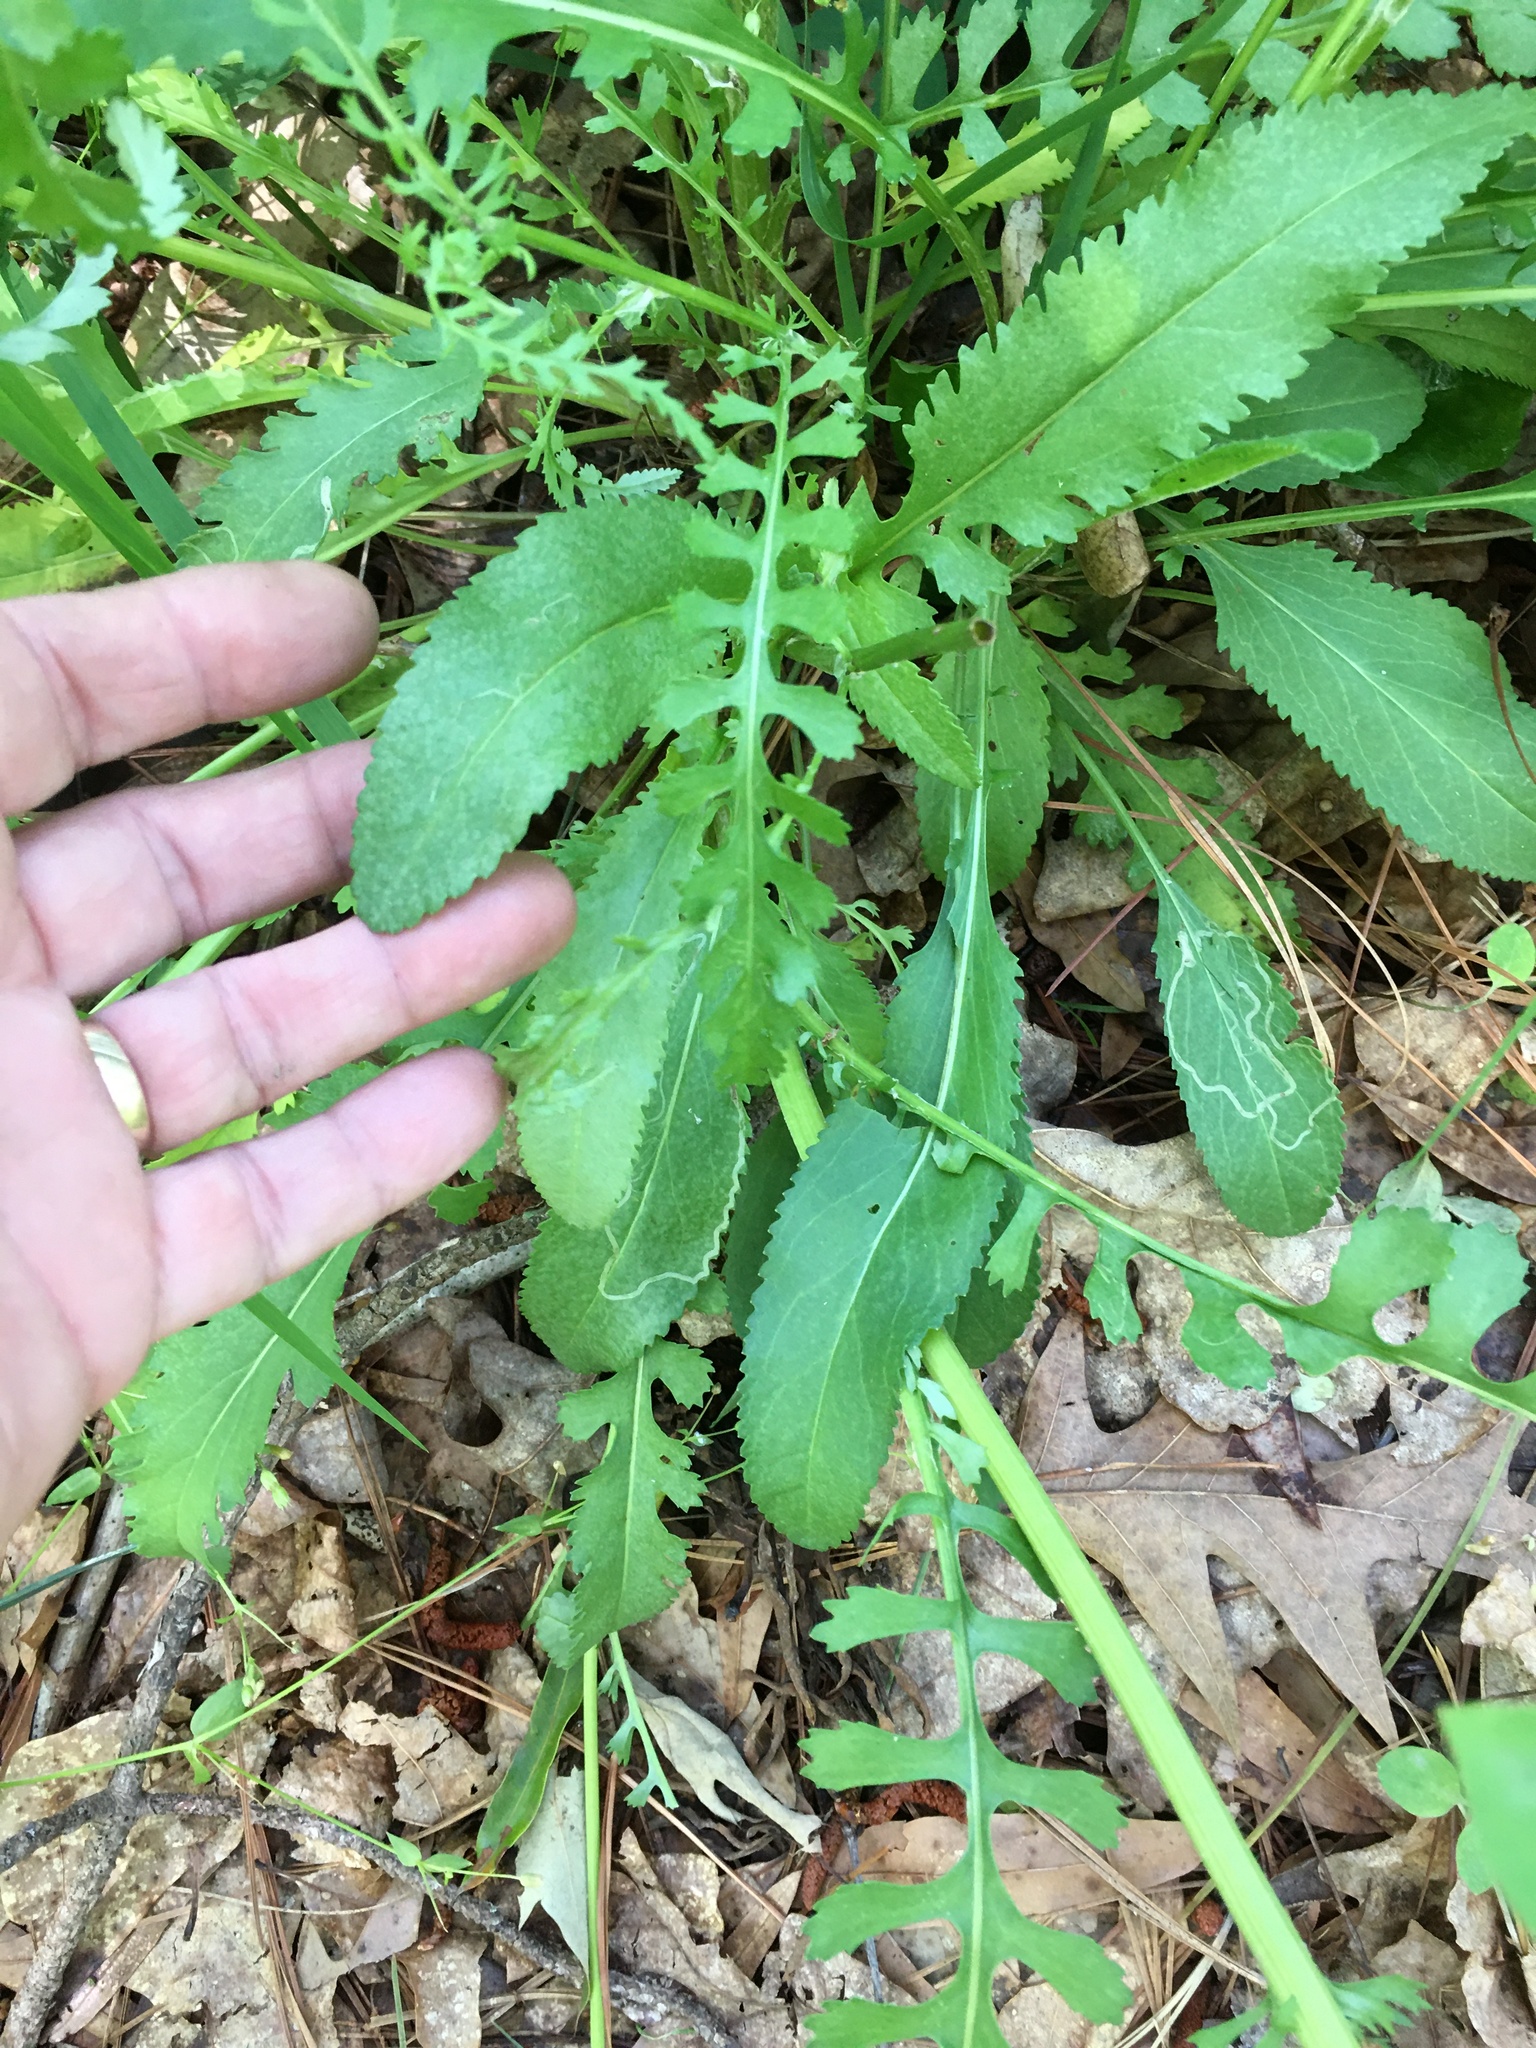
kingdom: Plantae
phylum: Tracheophyta
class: Magnoliopsida
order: Asterales
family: Asteraceae
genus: Packera
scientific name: Packera anonyma
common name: Small ragwort
